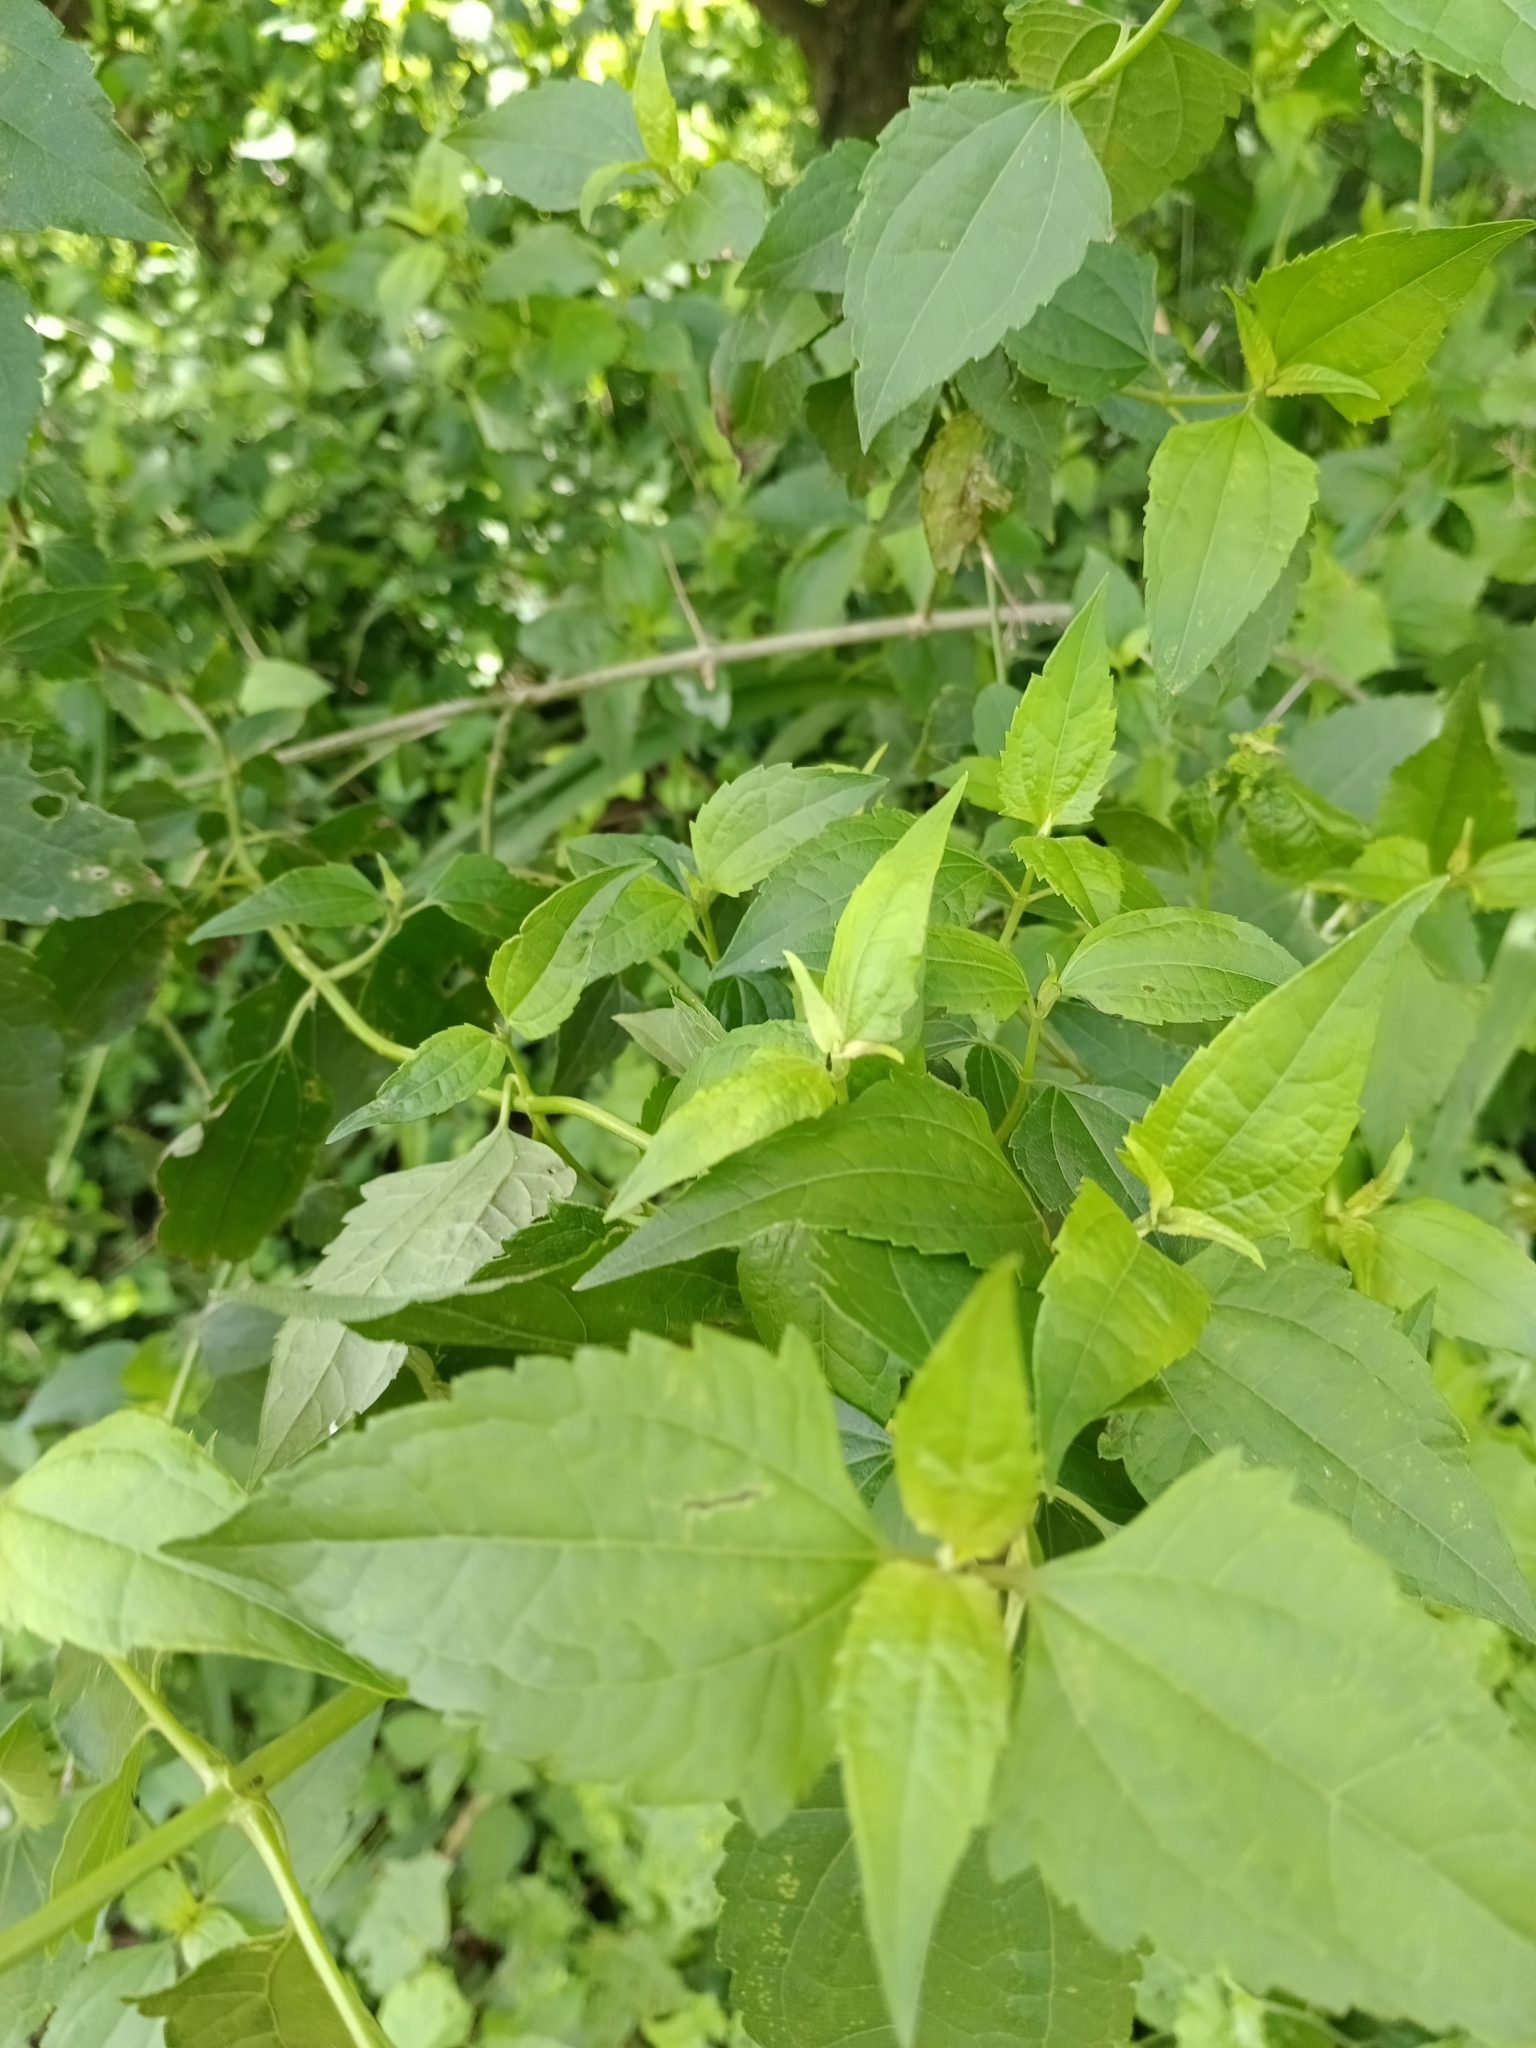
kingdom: Plantae
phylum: Tracheophyta
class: Magnoliopsida
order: Asterales
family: Asteraceae
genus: Chromolaena
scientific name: Chromolaena odorata
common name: Siamweed
